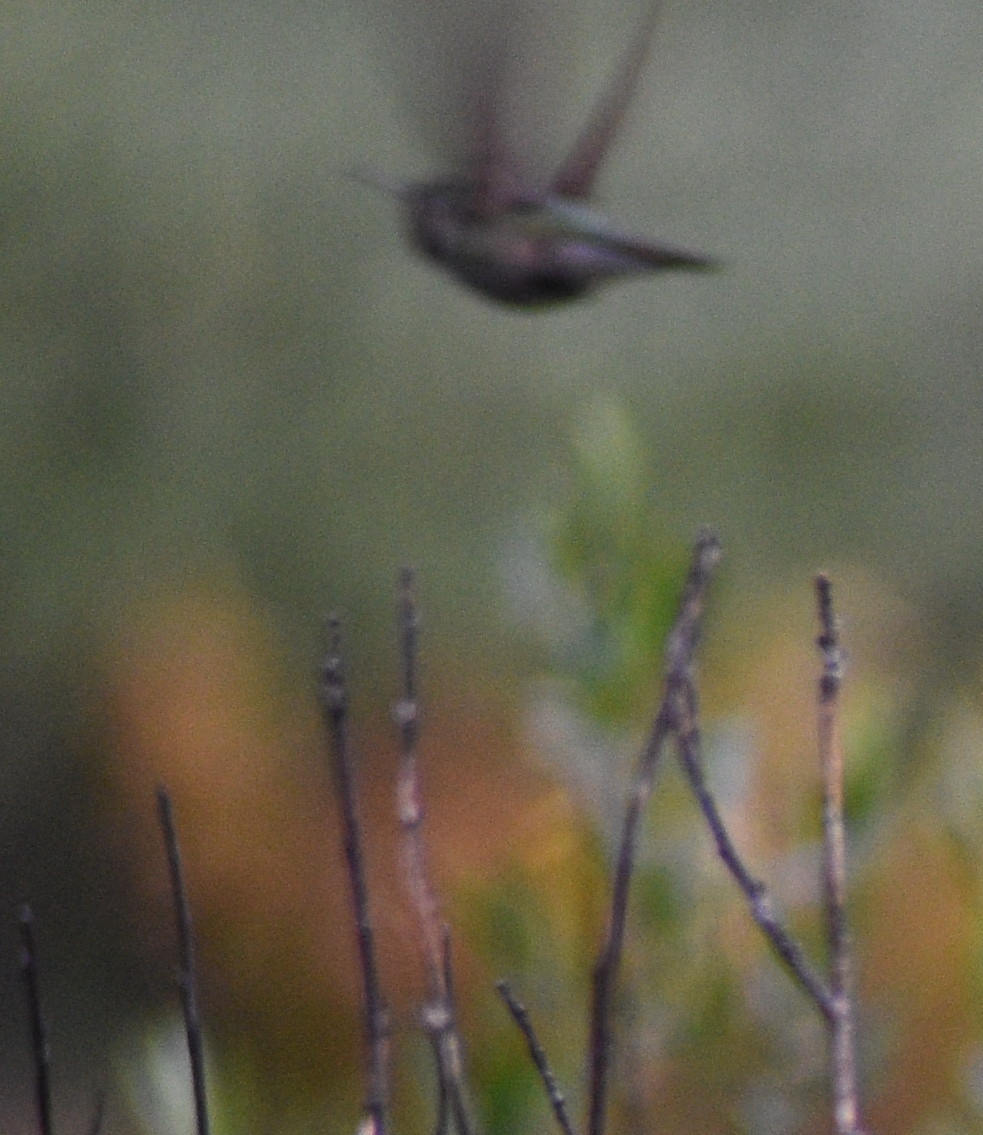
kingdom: Animalia
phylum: Chordata
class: Aves
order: Apodiformes
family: Trochilidae
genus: Selasphorus
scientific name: Selasphorus platycercus
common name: Broad-tailed hummingbird
